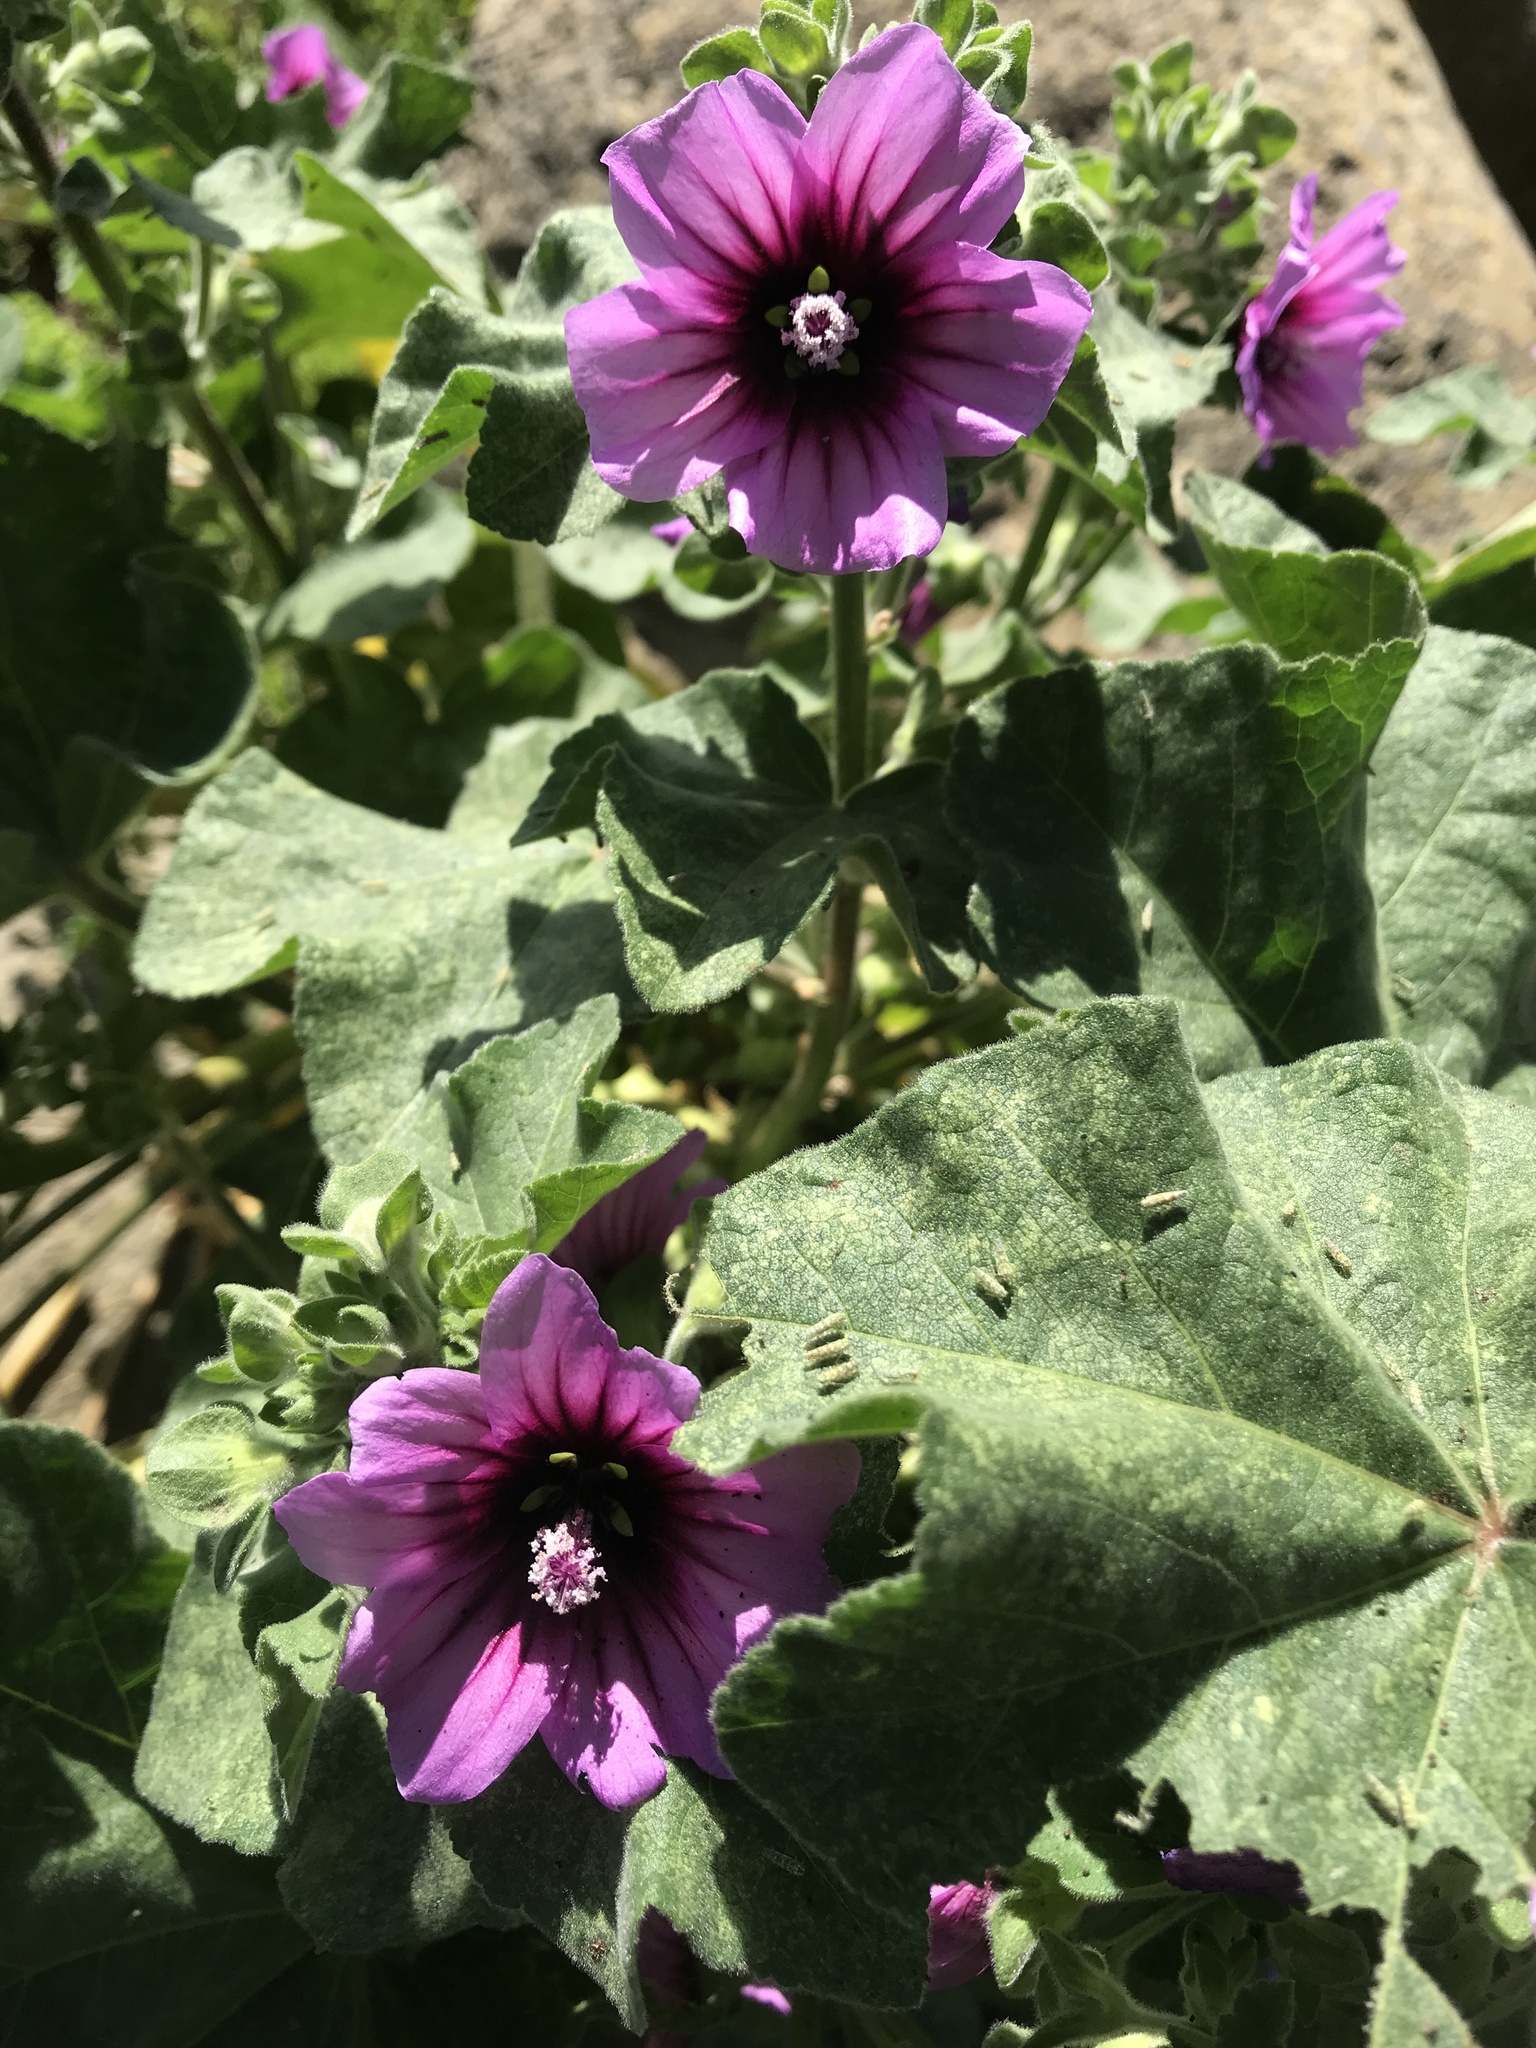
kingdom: Plantae
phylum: Tracheophyta
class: Magnoliopsida
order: Malvales
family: Malvaceae
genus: Malva
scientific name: Malva arborea
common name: Tree mallow
